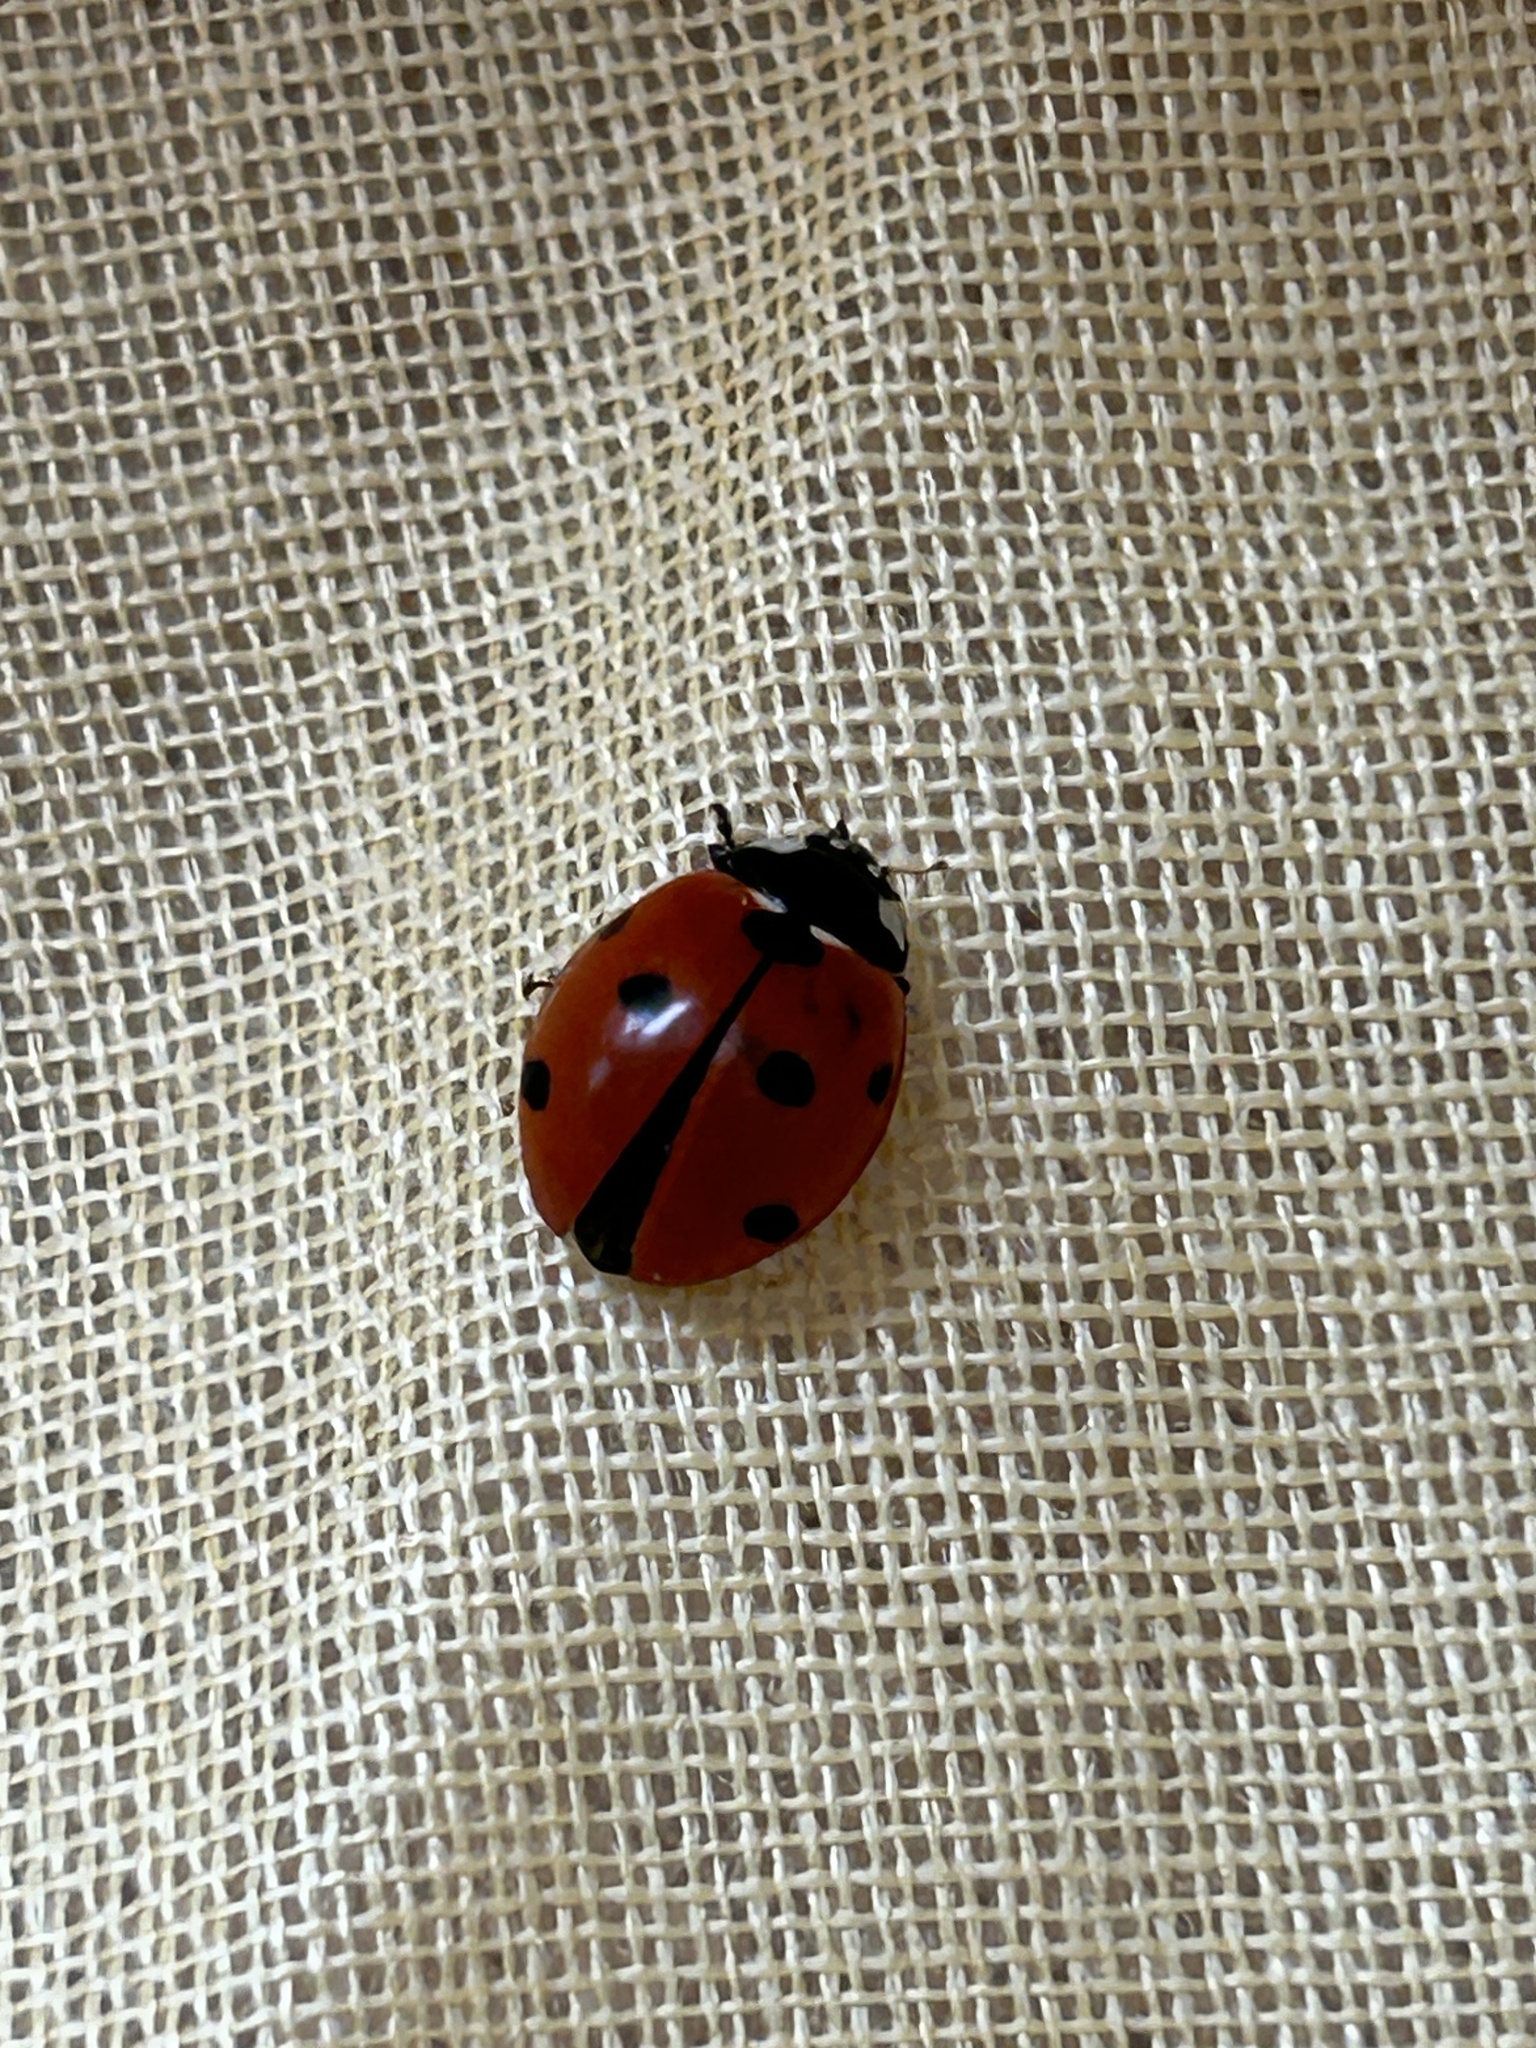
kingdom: Animalia
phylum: Arthropoda
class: Insecta
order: Coleoptera
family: Coccinellidae
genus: Coccinella
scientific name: Coccinella septempunctata
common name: Sevenspotted lady beetle
